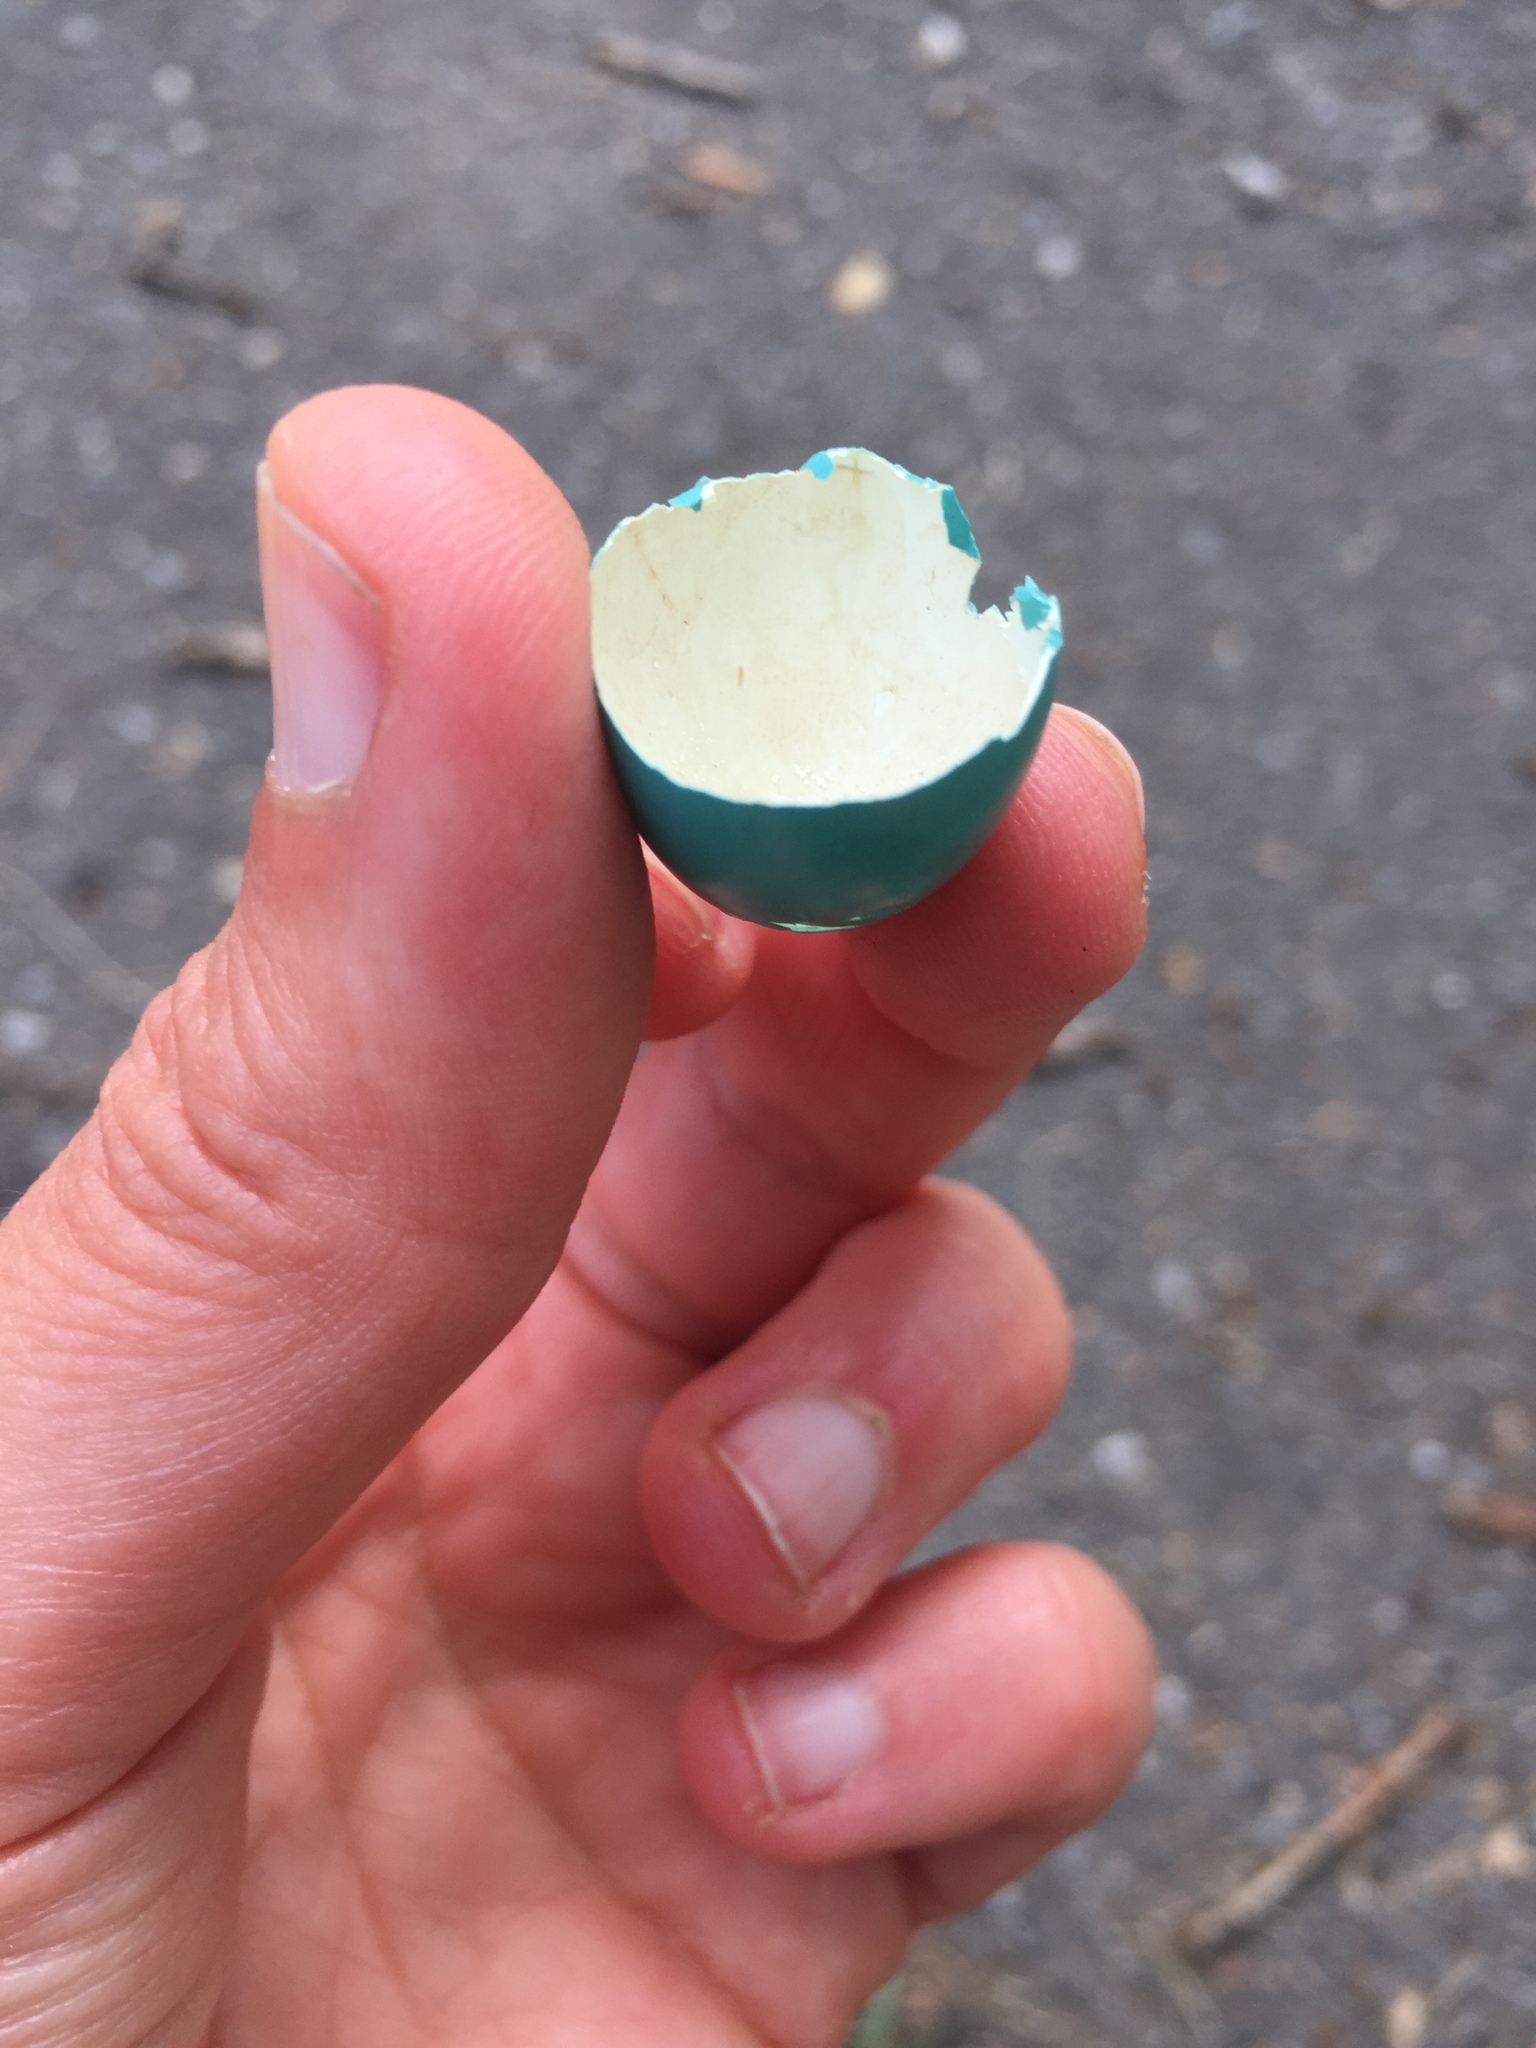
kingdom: Animalia
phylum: Chordata
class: Aves
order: Passeriformes
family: Turdidae
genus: Turdus
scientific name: Turdus migratorius
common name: American robin
